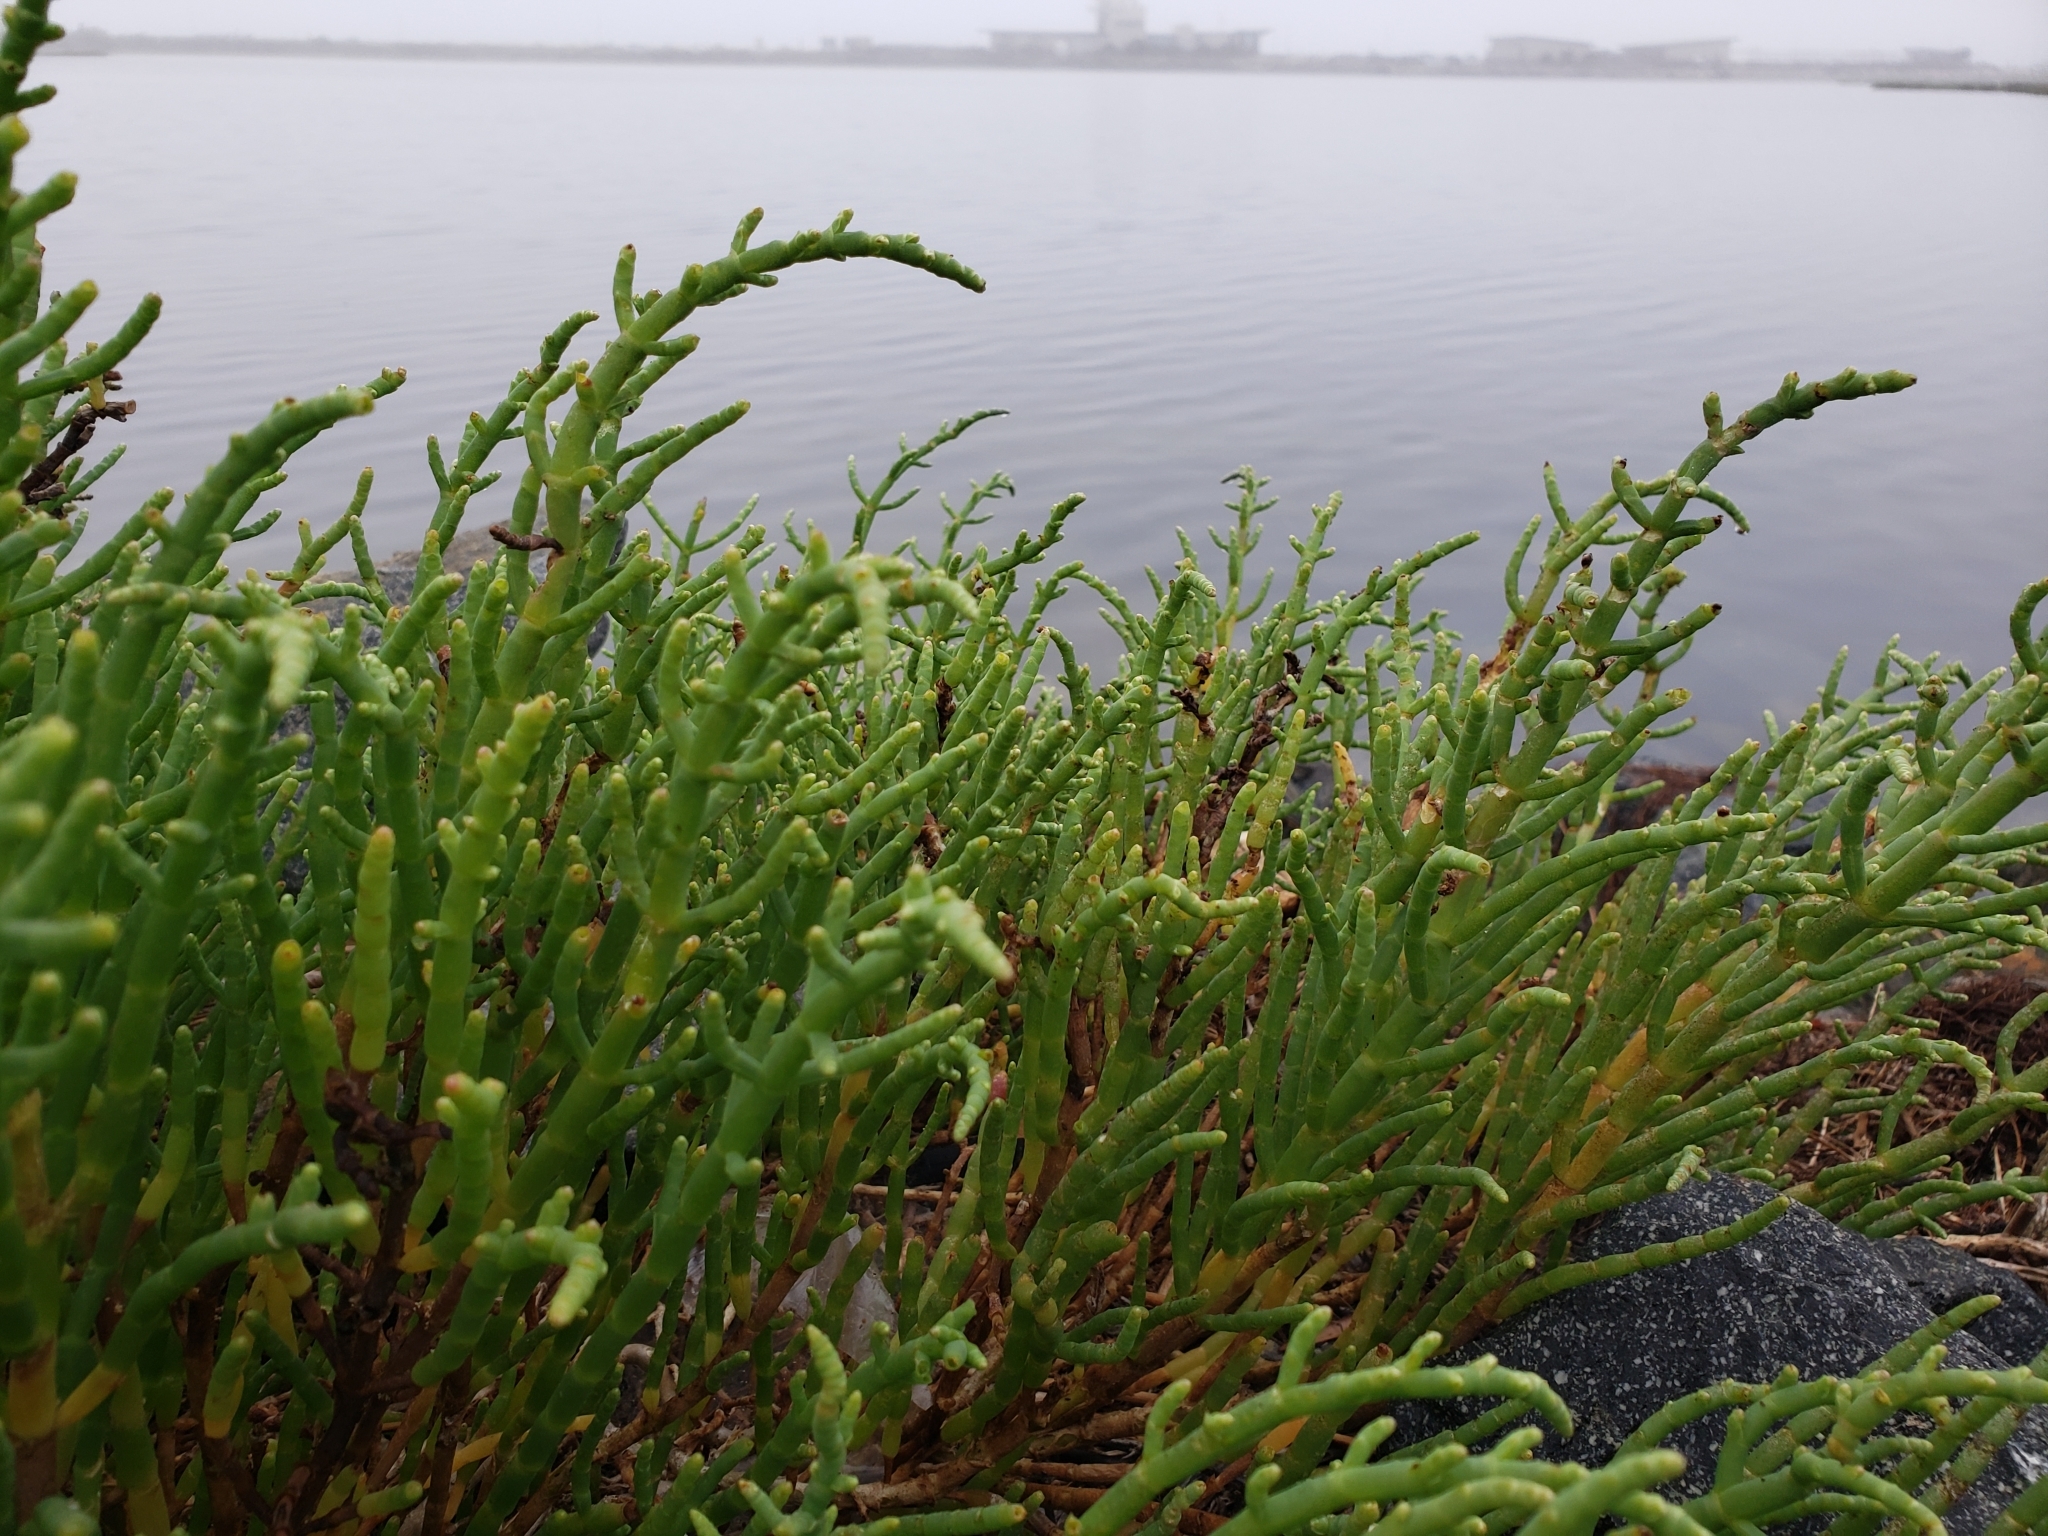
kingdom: Plantae
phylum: Tracheophyta
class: Magnoliopsida
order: Caryophyllales
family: Amaranthaceae
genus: Salicornia
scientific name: Salicornia pacifica
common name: Pacific glasswort
